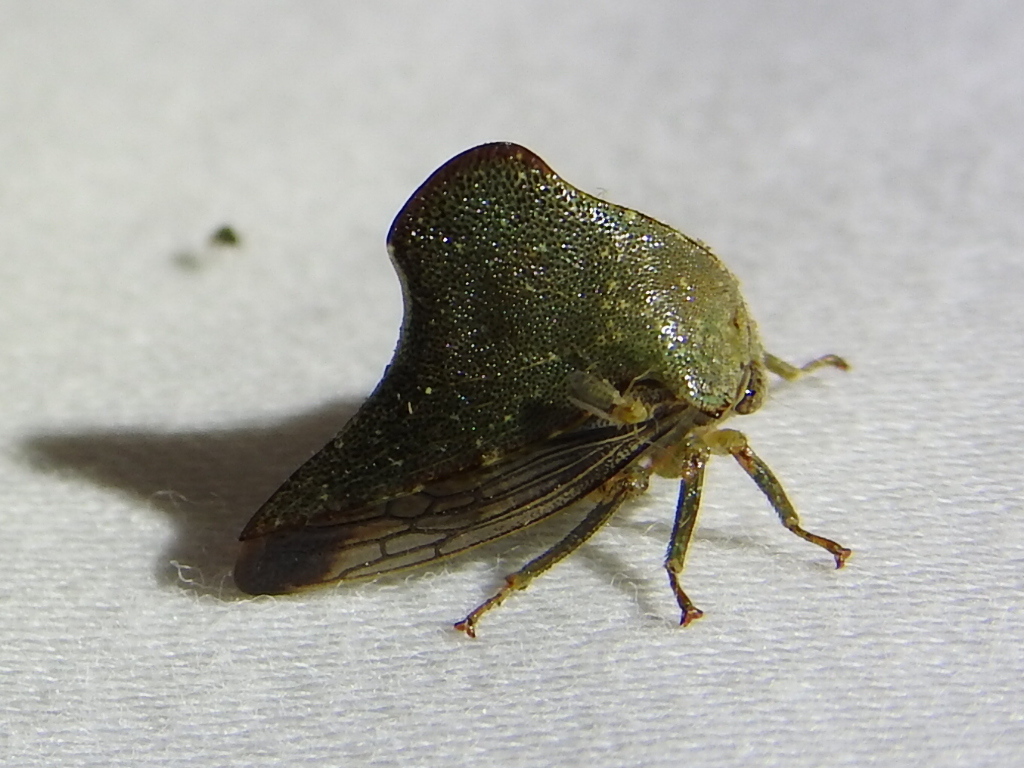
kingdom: Animalia
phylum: Arthropoda
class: Insecta
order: Hemiptera
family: Membracidae
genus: Telamona
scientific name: Telamona monticola
